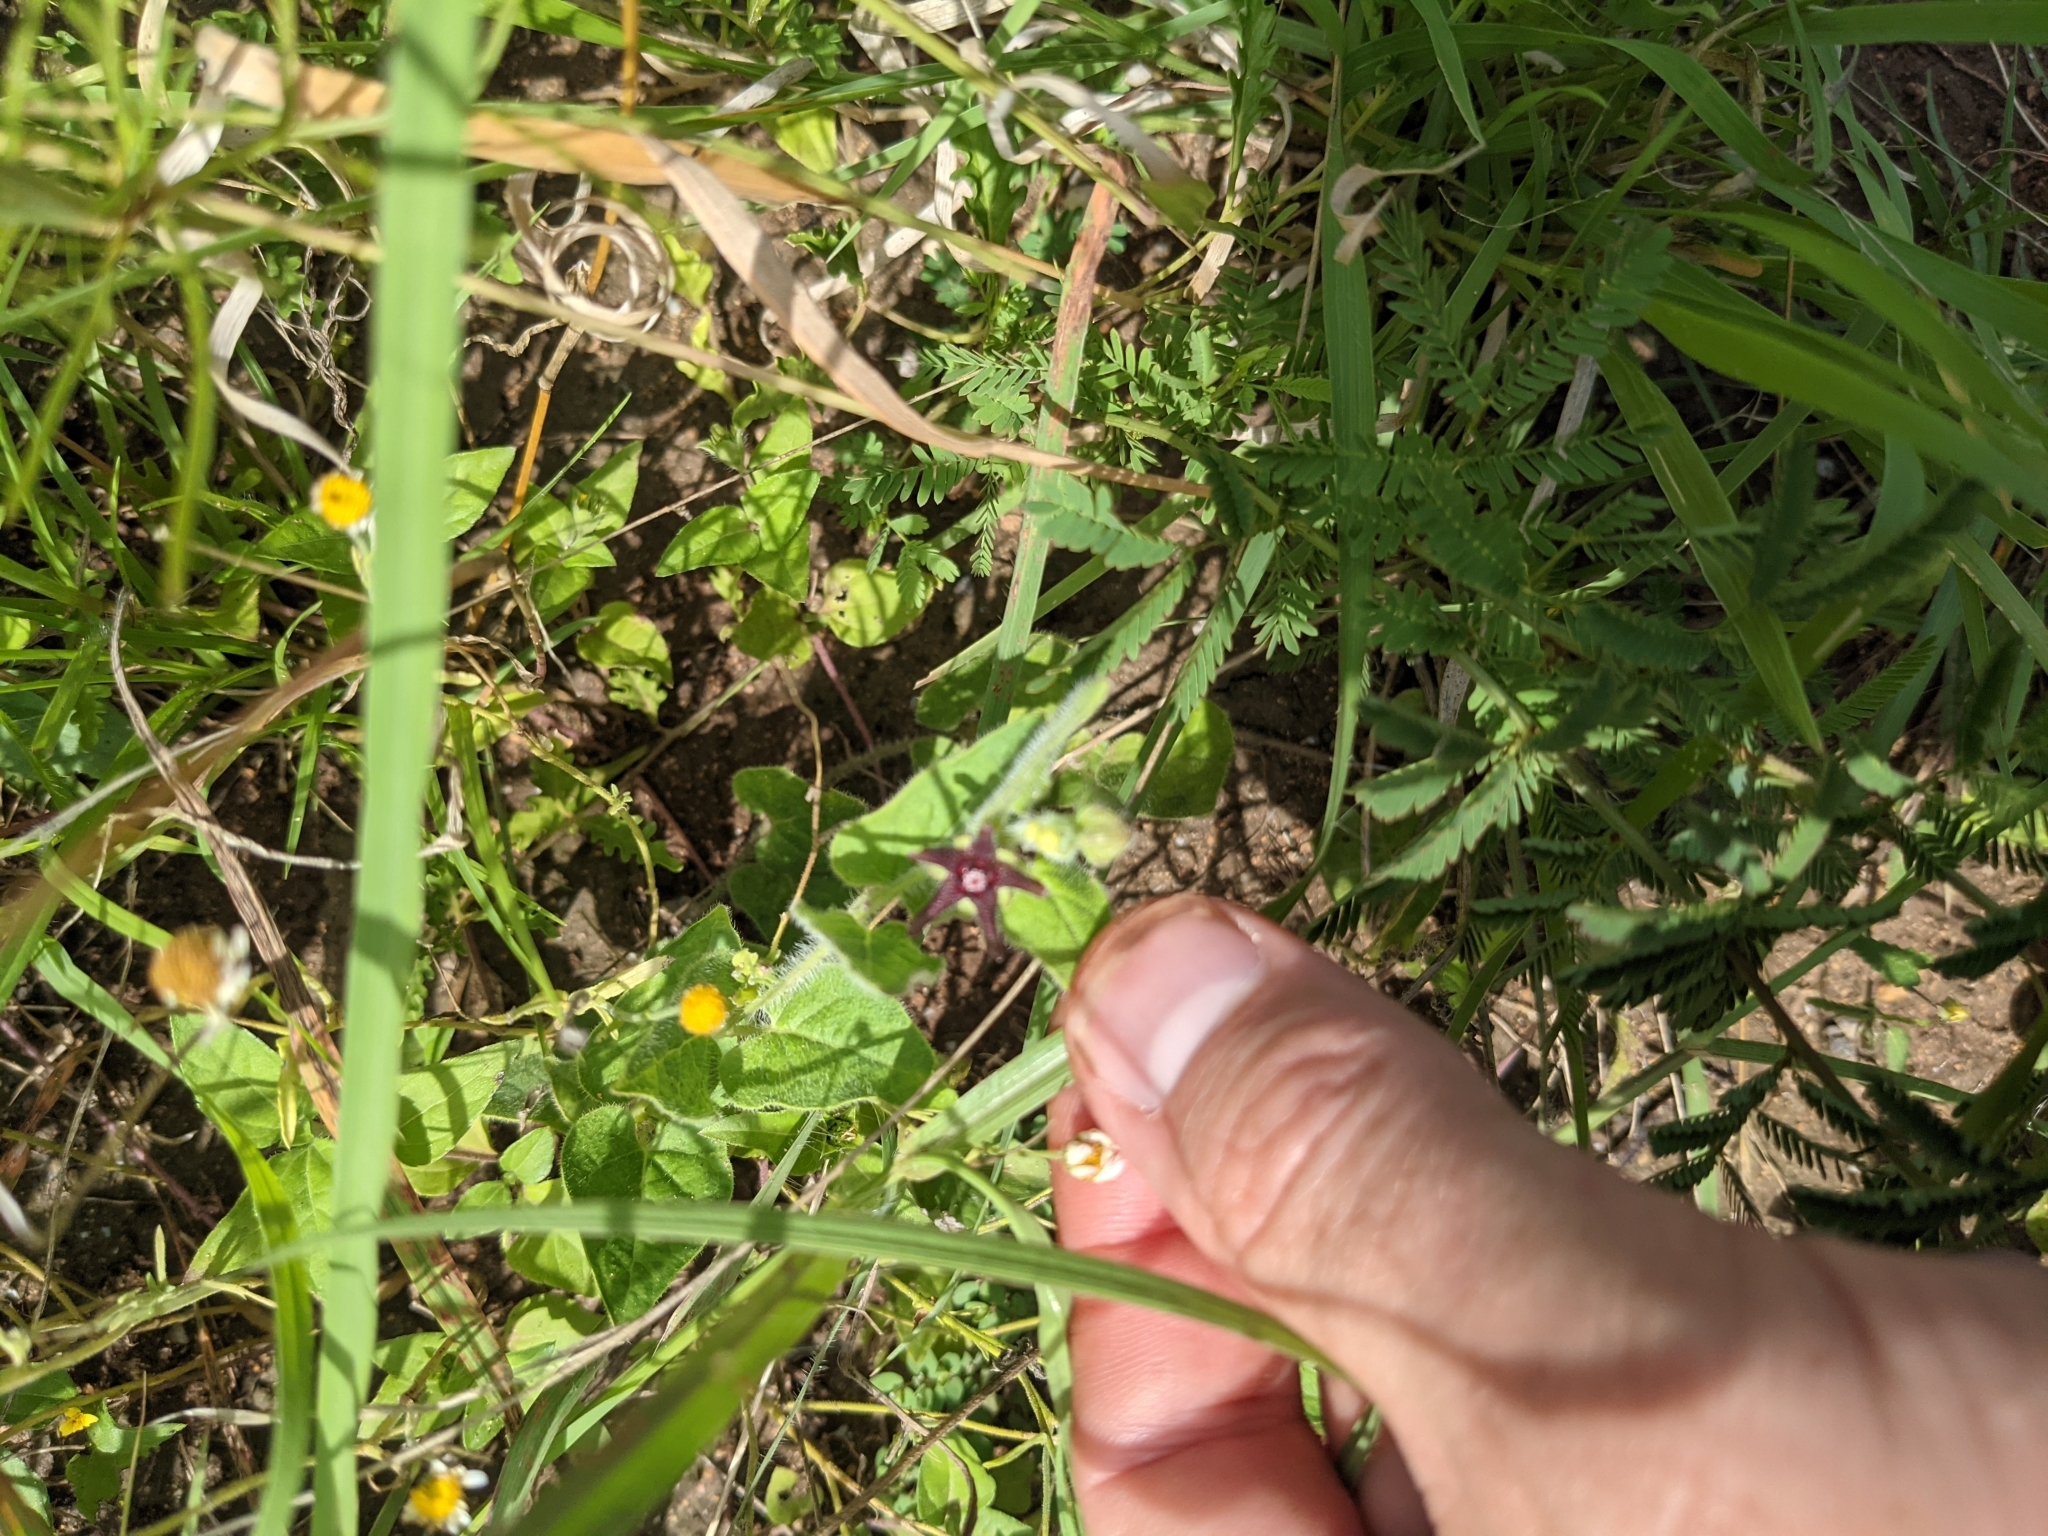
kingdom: Plantae
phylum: Tracheophyta
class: Magnoliopsida
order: Gentianales
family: Apocynaceae
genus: Chthamalia
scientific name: Chthamalia biflora
